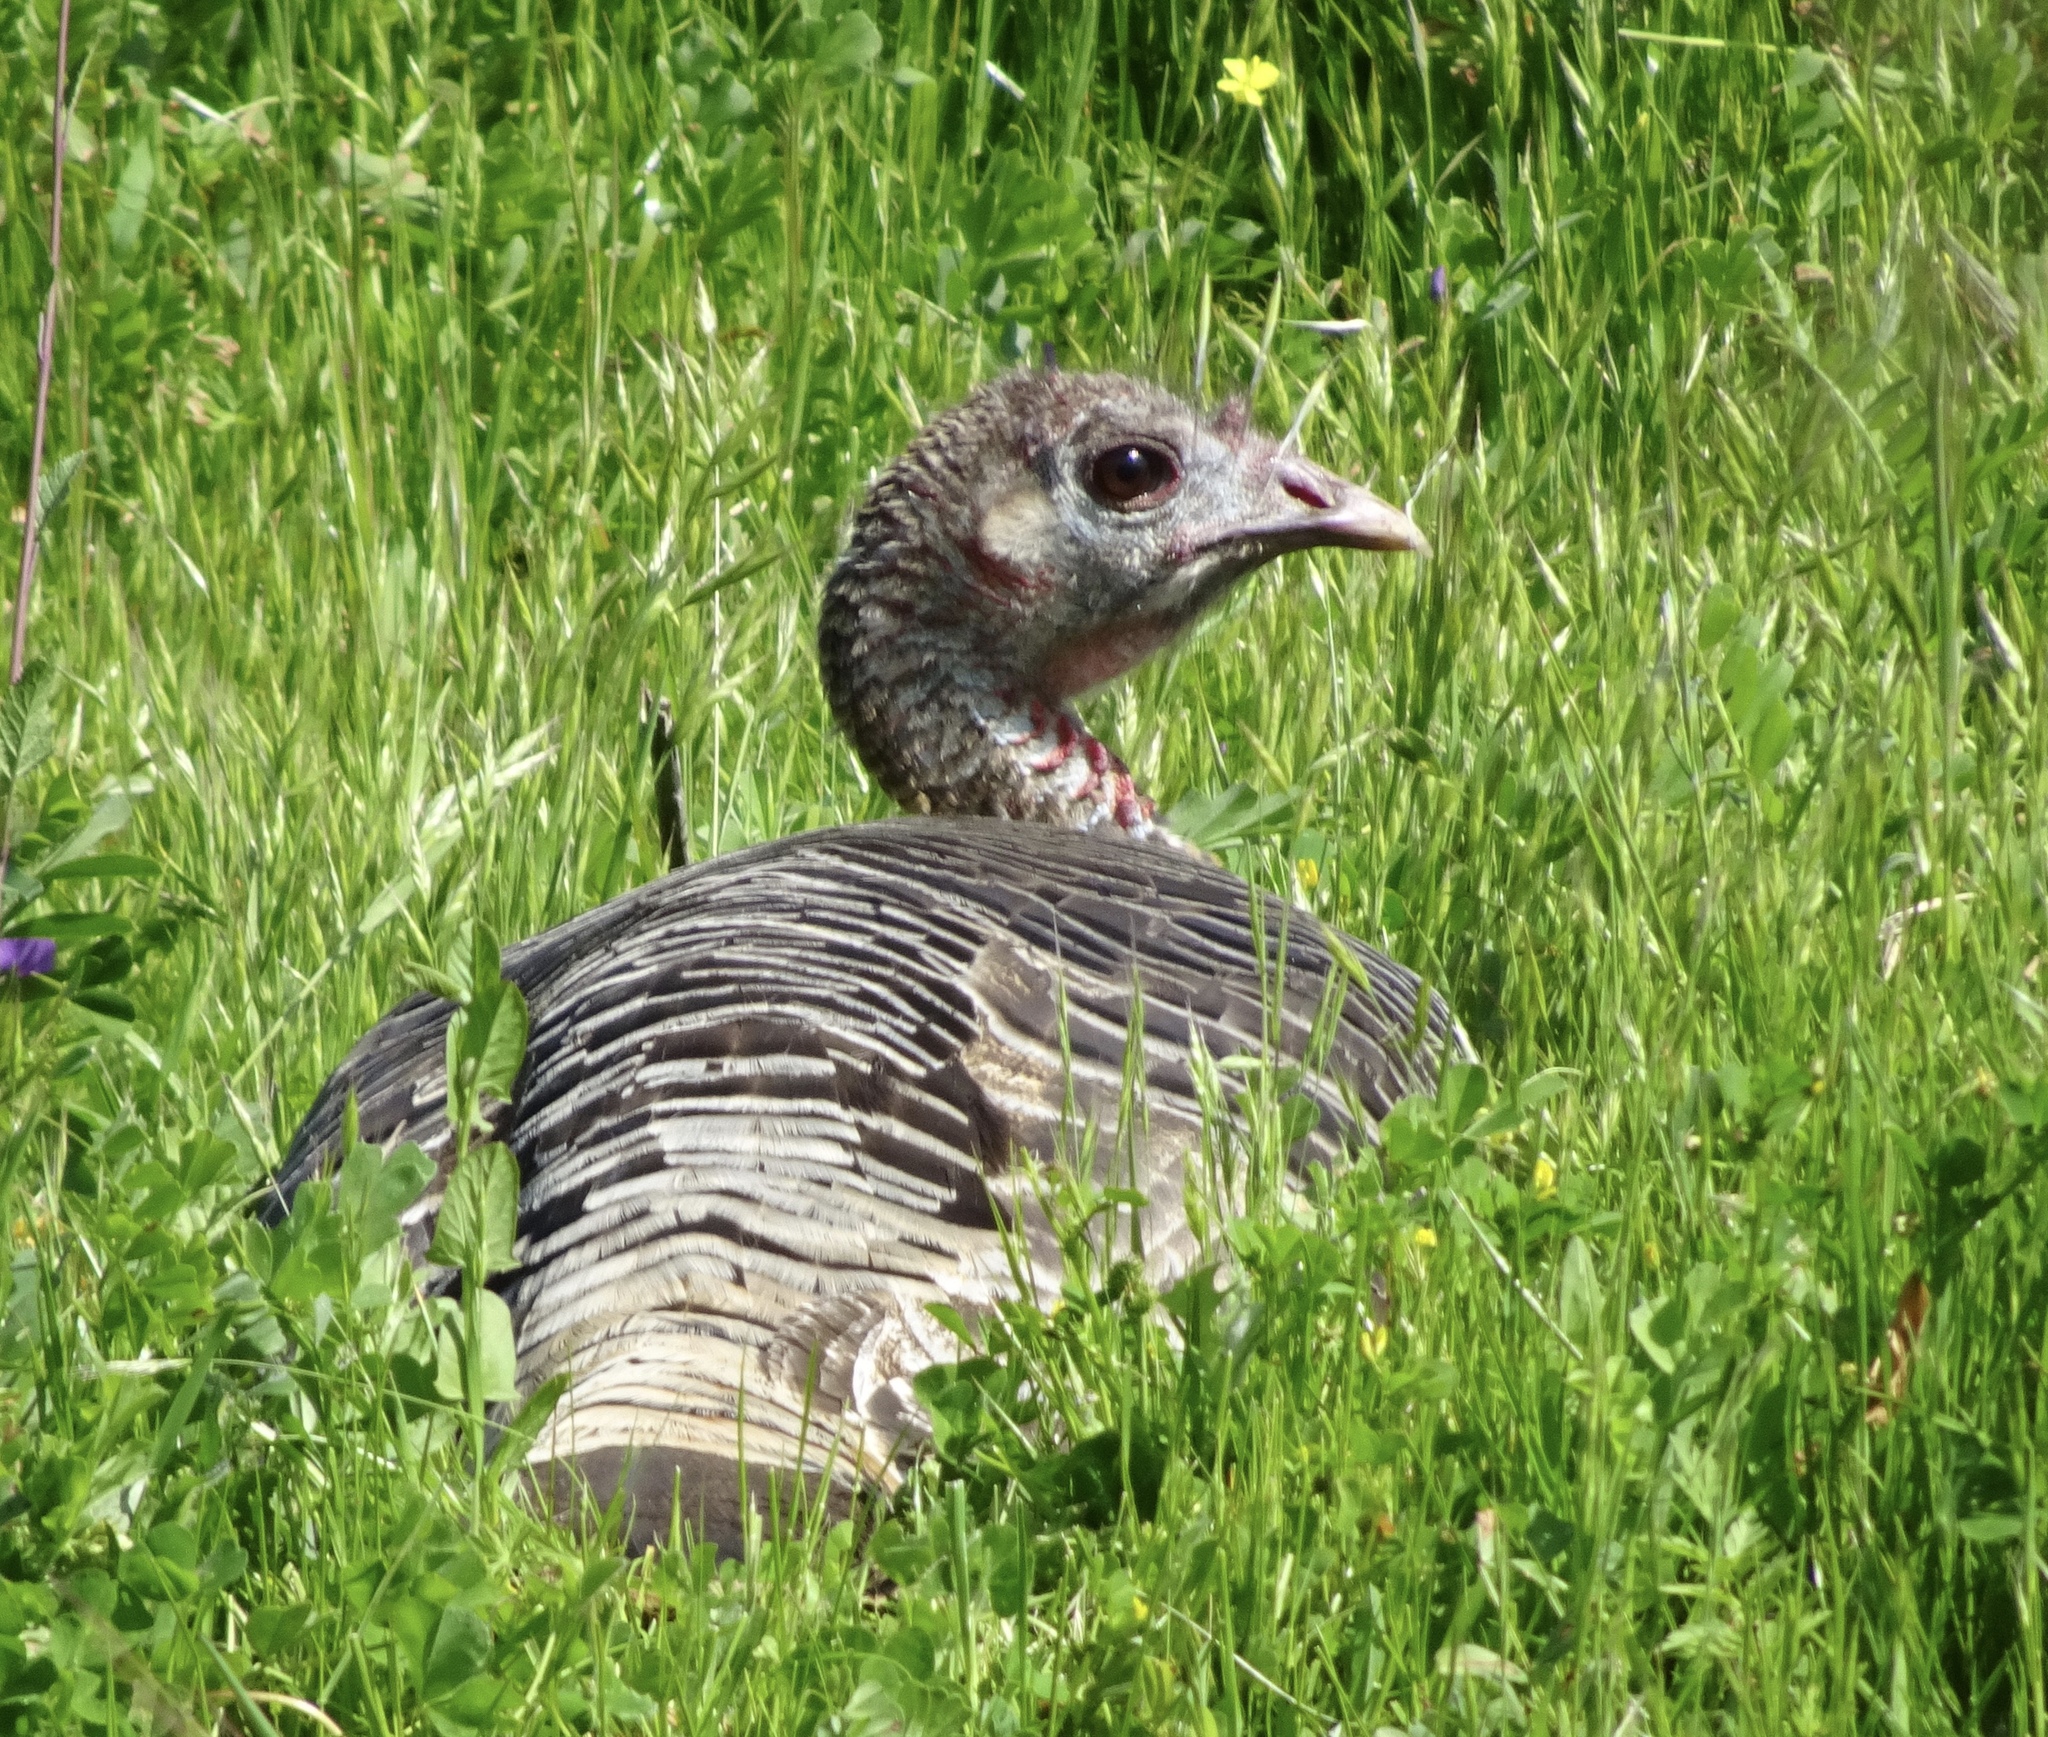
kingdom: Animalia
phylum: Chordata
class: Aves
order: Galliformes
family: Phasianidae
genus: Meleagris
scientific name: Meleagris gallopavo
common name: Wild turkey
